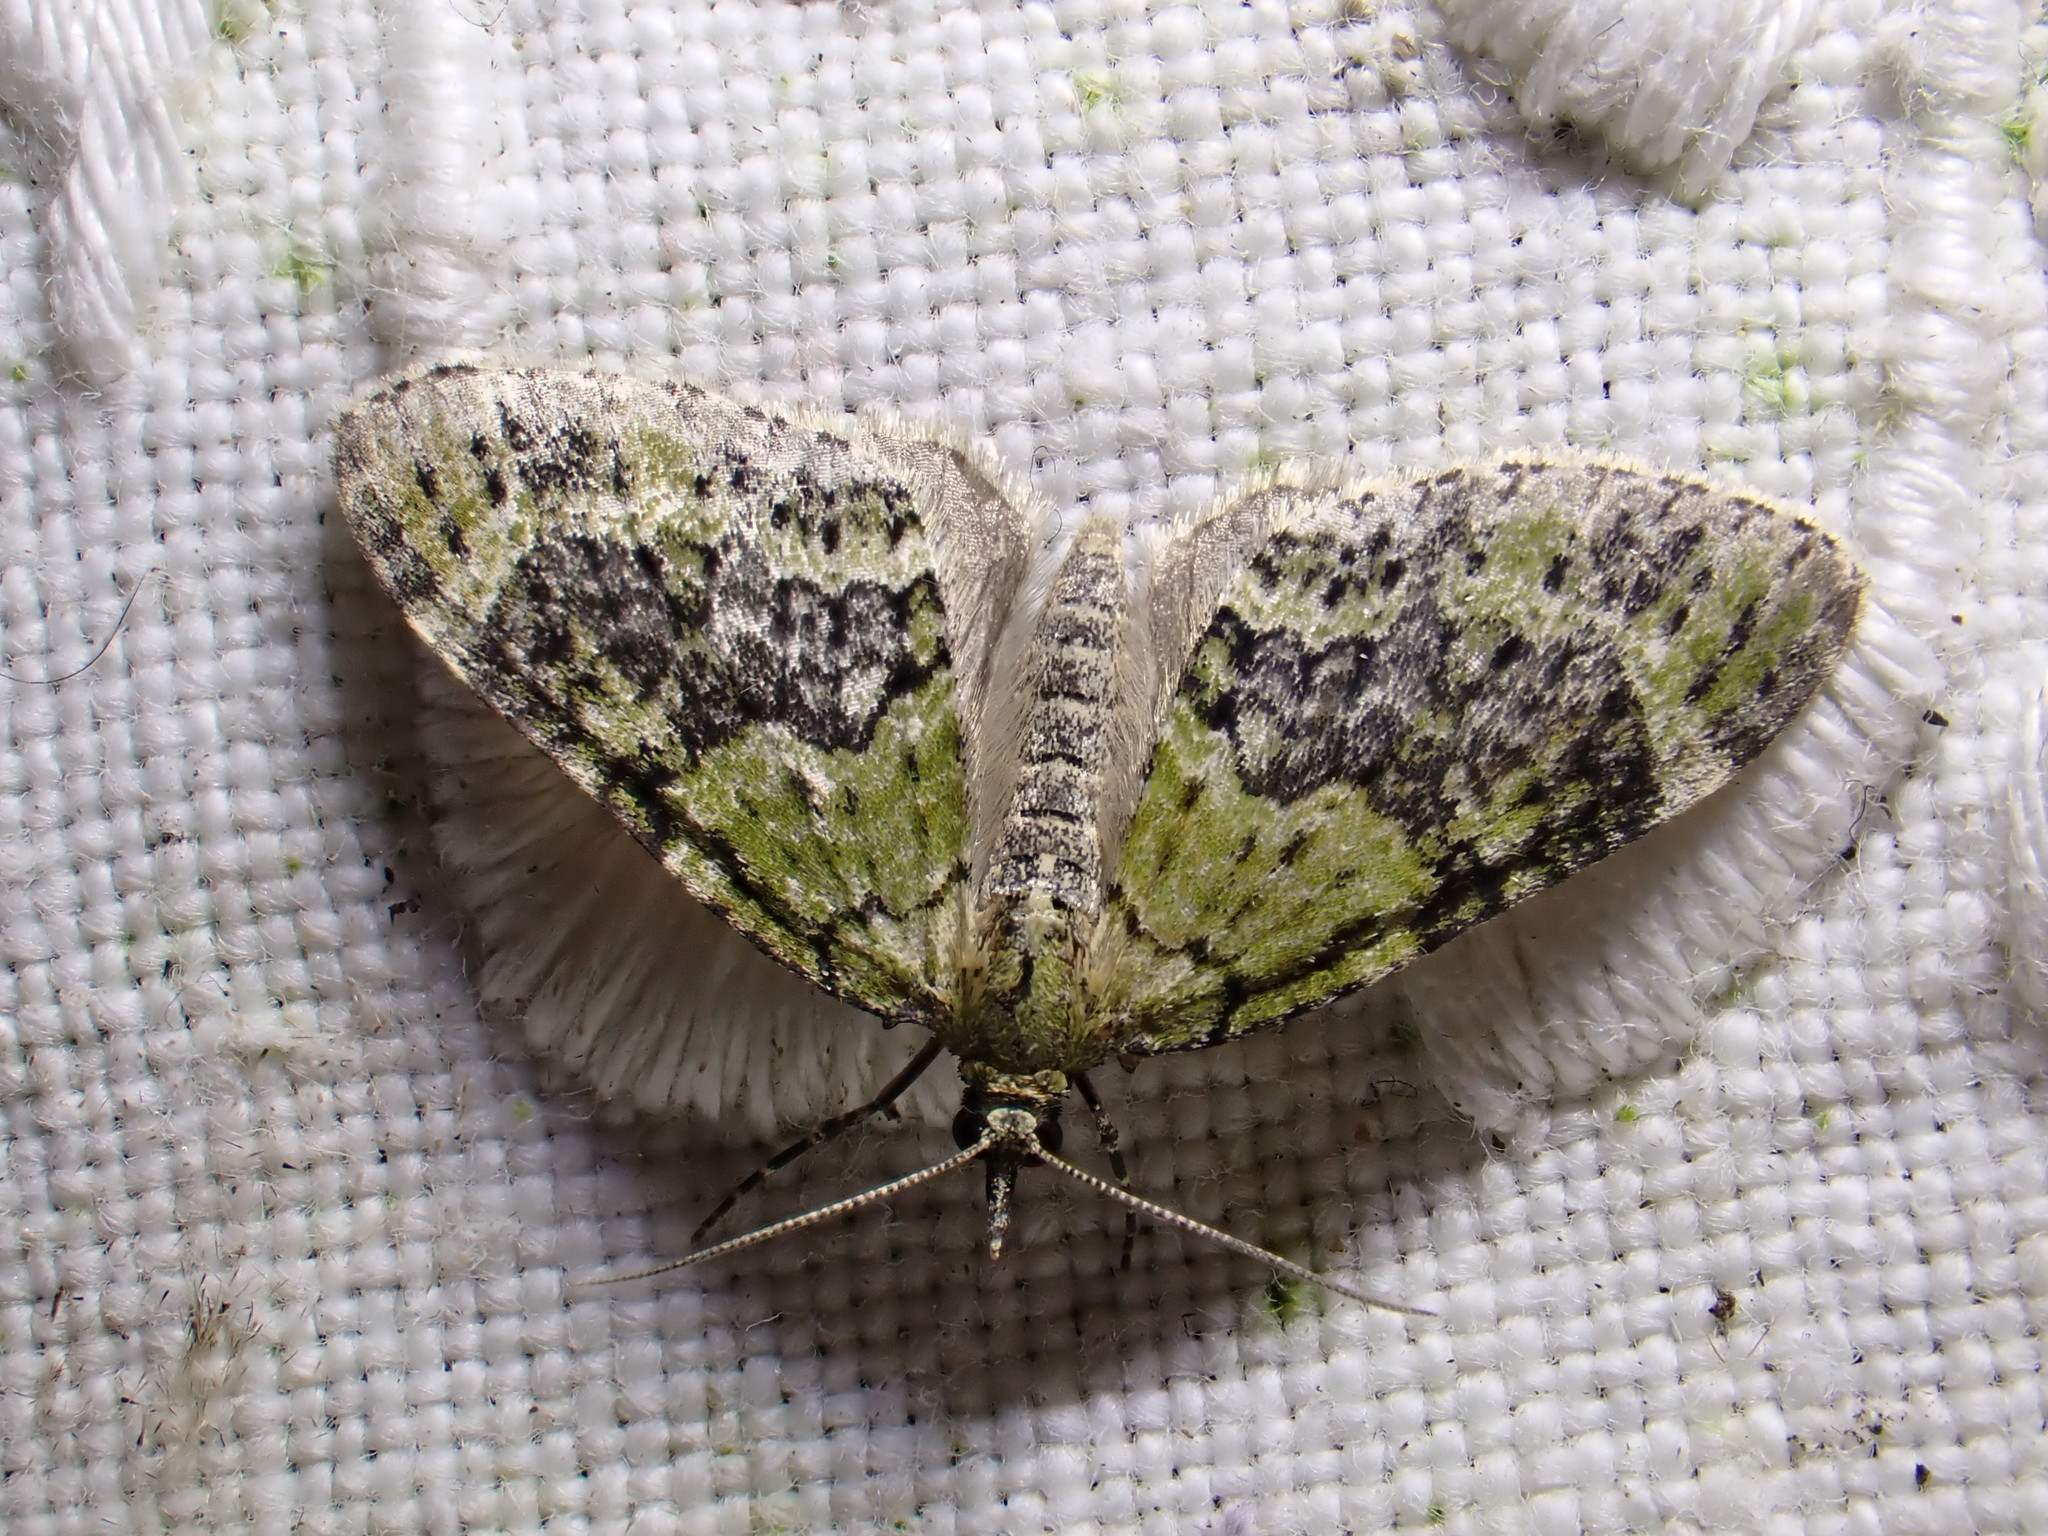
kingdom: Animalia
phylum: Arthropoda
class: Insecta
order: Lepidoptera
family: Geometridae
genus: Acasis
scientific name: Acasis viretata
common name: Yellow-barred brindle
